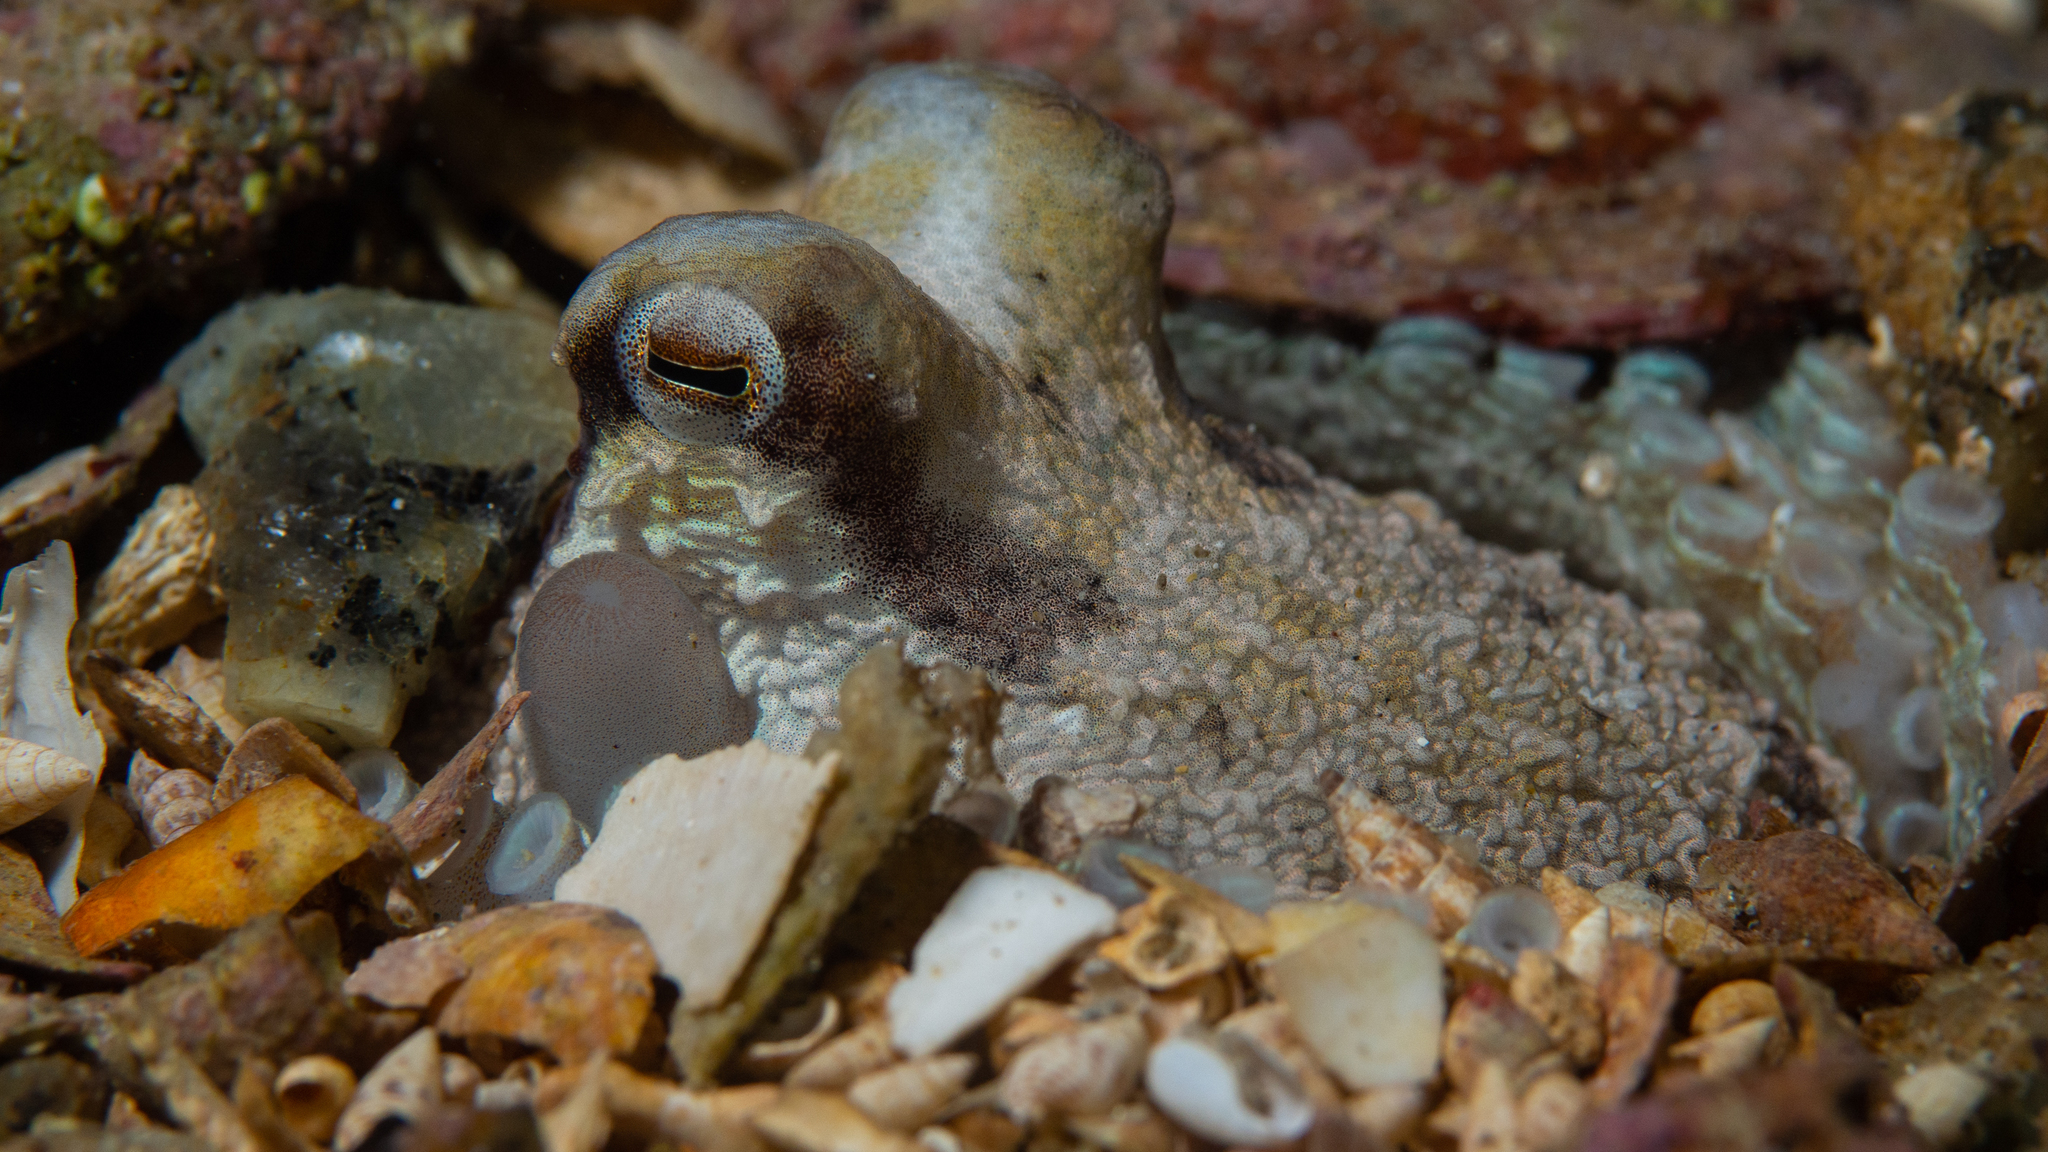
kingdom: Animalia
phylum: Mollusca
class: Cephalopoda
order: Octopoda
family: Octopodidae
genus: Octopus
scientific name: Octopus berrima
